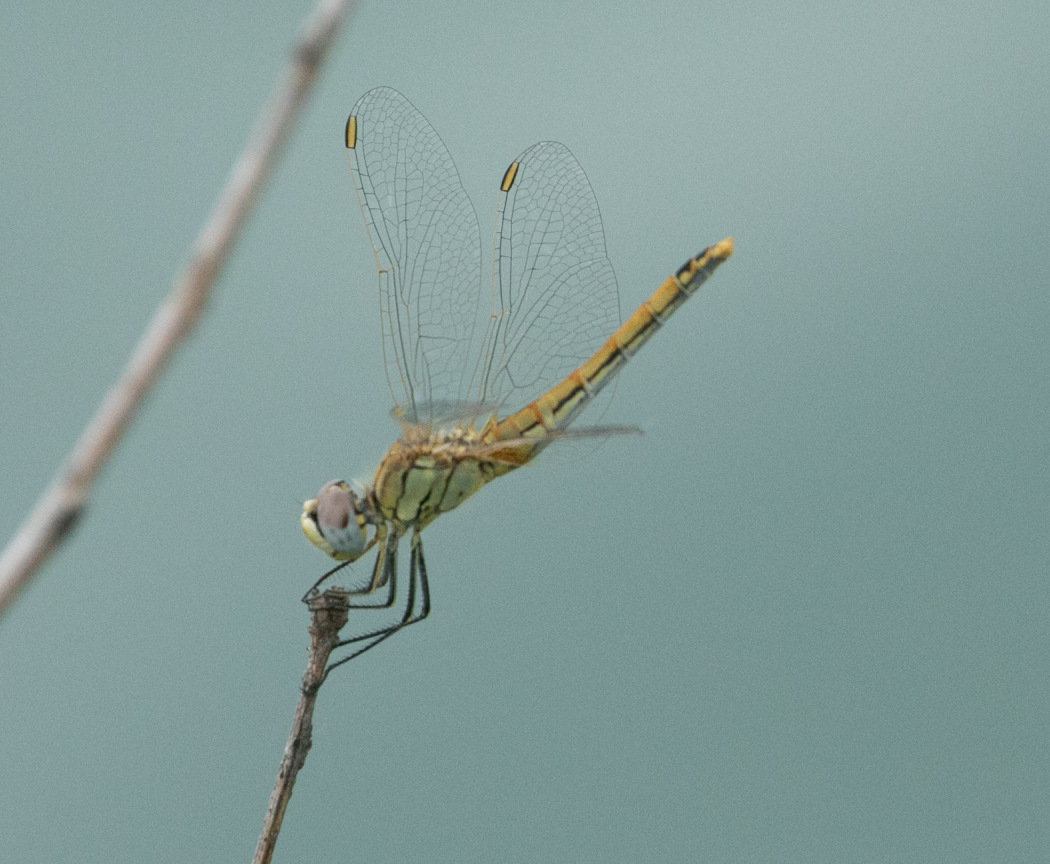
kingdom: Animalia
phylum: Arthropoda
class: Insecta
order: Odonata
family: Libellulidae
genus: Sympetrum
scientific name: Sympetrum fonscolombii
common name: Red-veined darter
